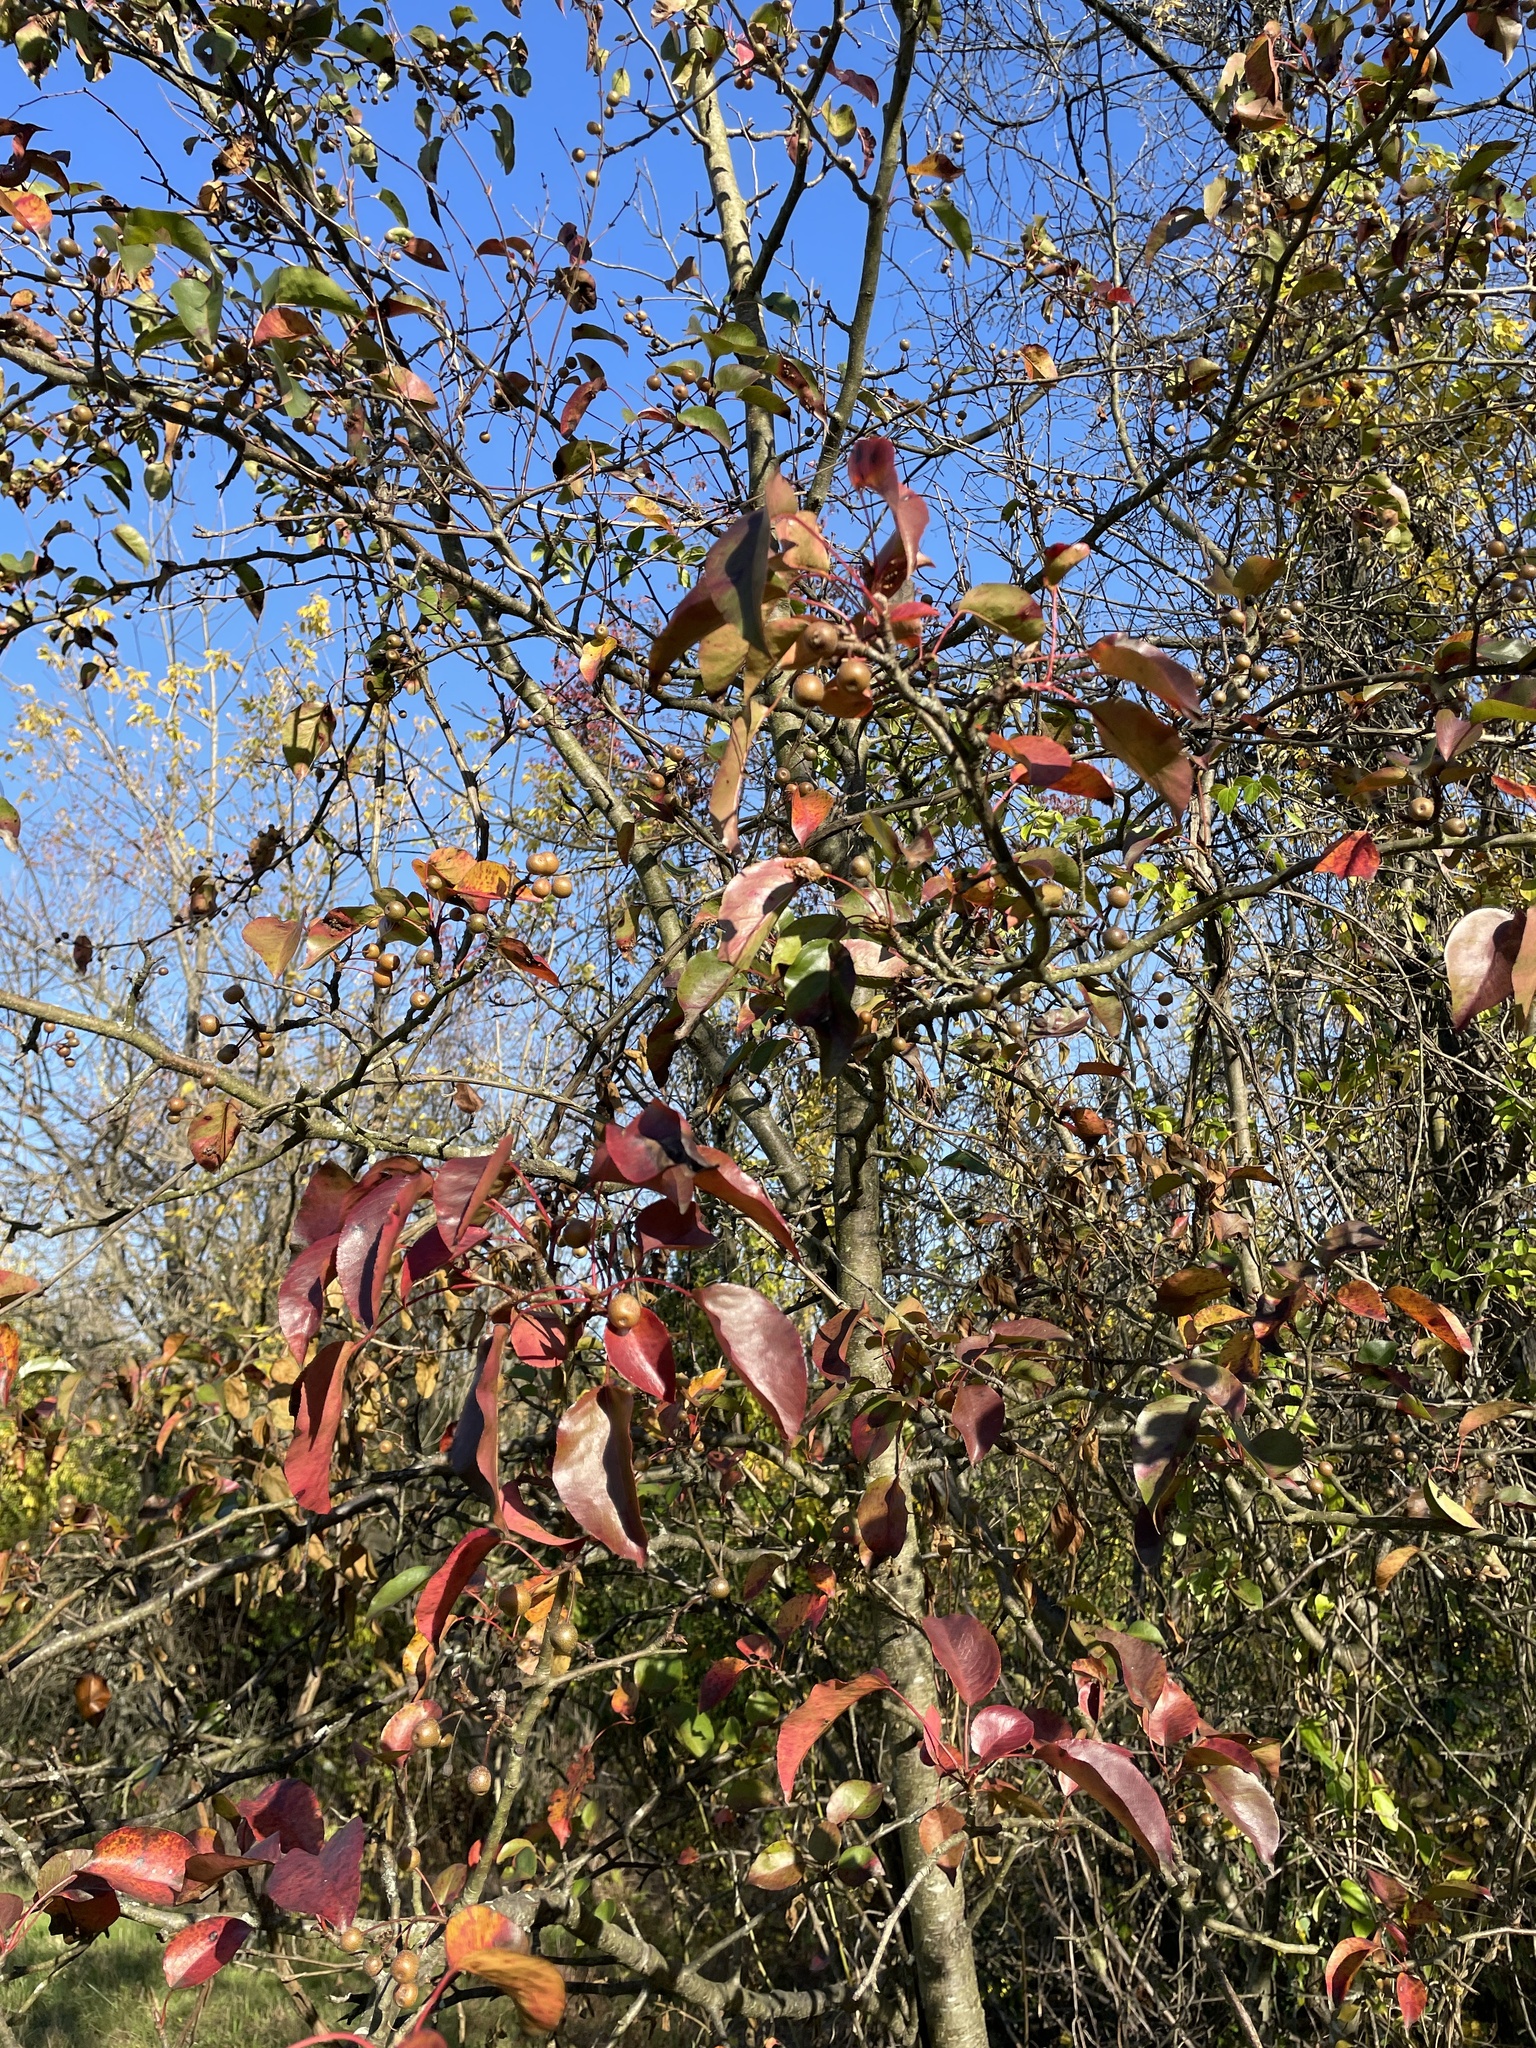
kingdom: Plantae
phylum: Tracheophyta
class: Magnoliopsida
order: Rosales
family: Rosaceae
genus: Pyrus
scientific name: Pyrus calleryana
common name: Callery pear
